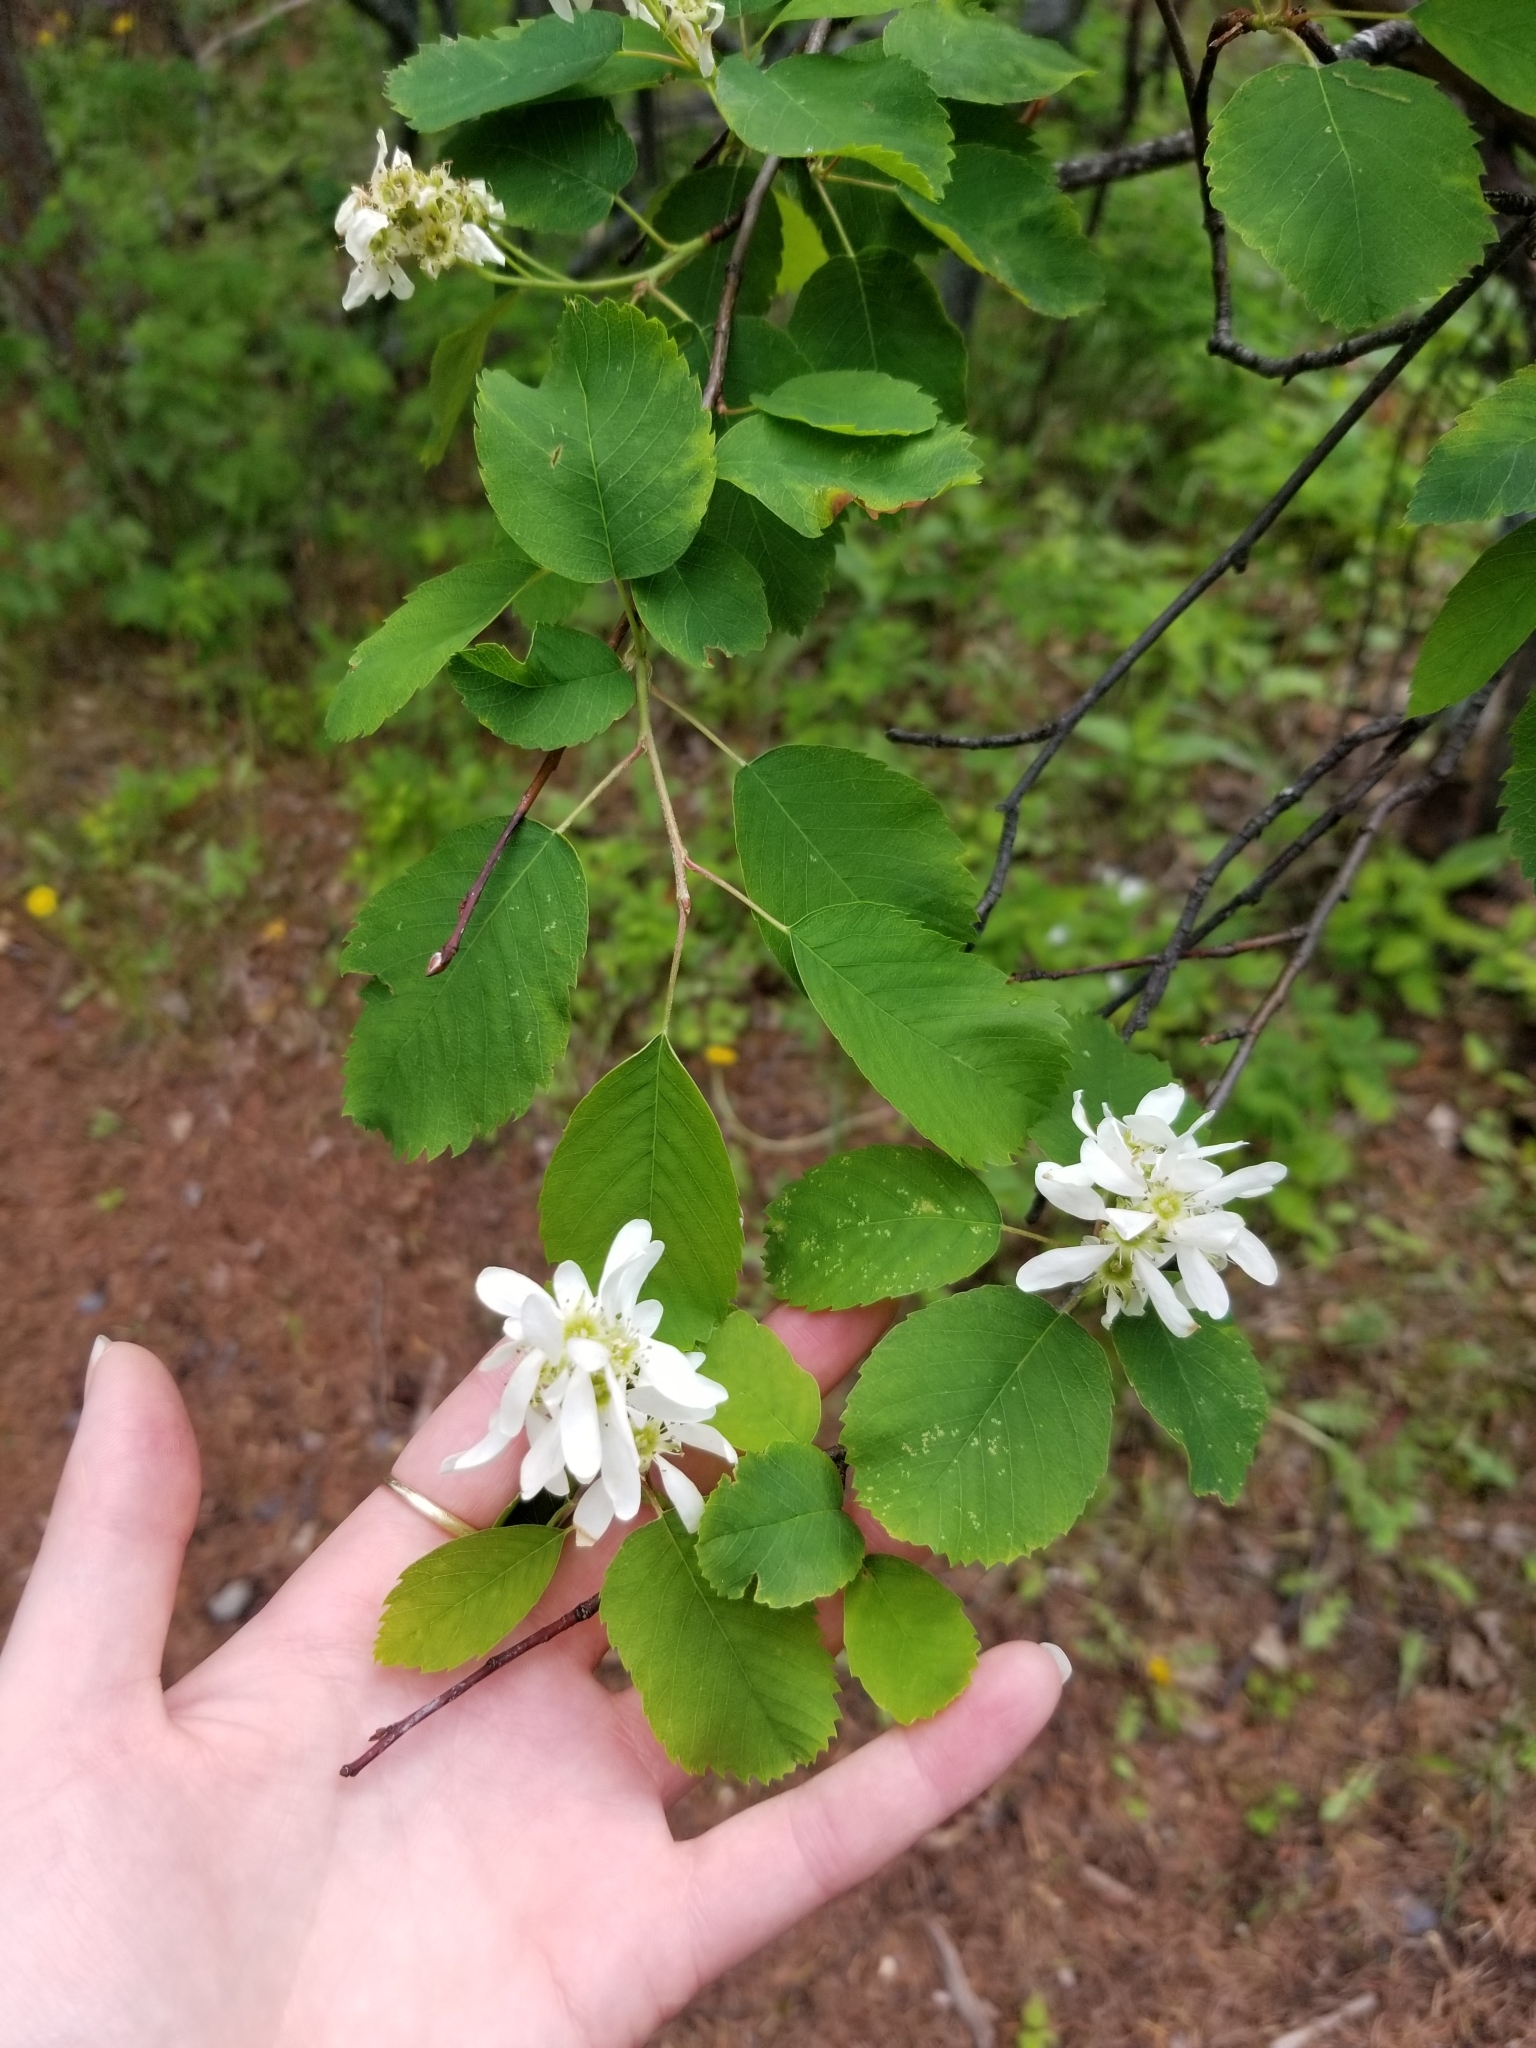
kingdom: Plantae
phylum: Tracheophyta
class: Magnoliopsida
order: Rosales
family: Rosaceae
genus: Amelanchier
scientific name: Amelanchier alnifolia
